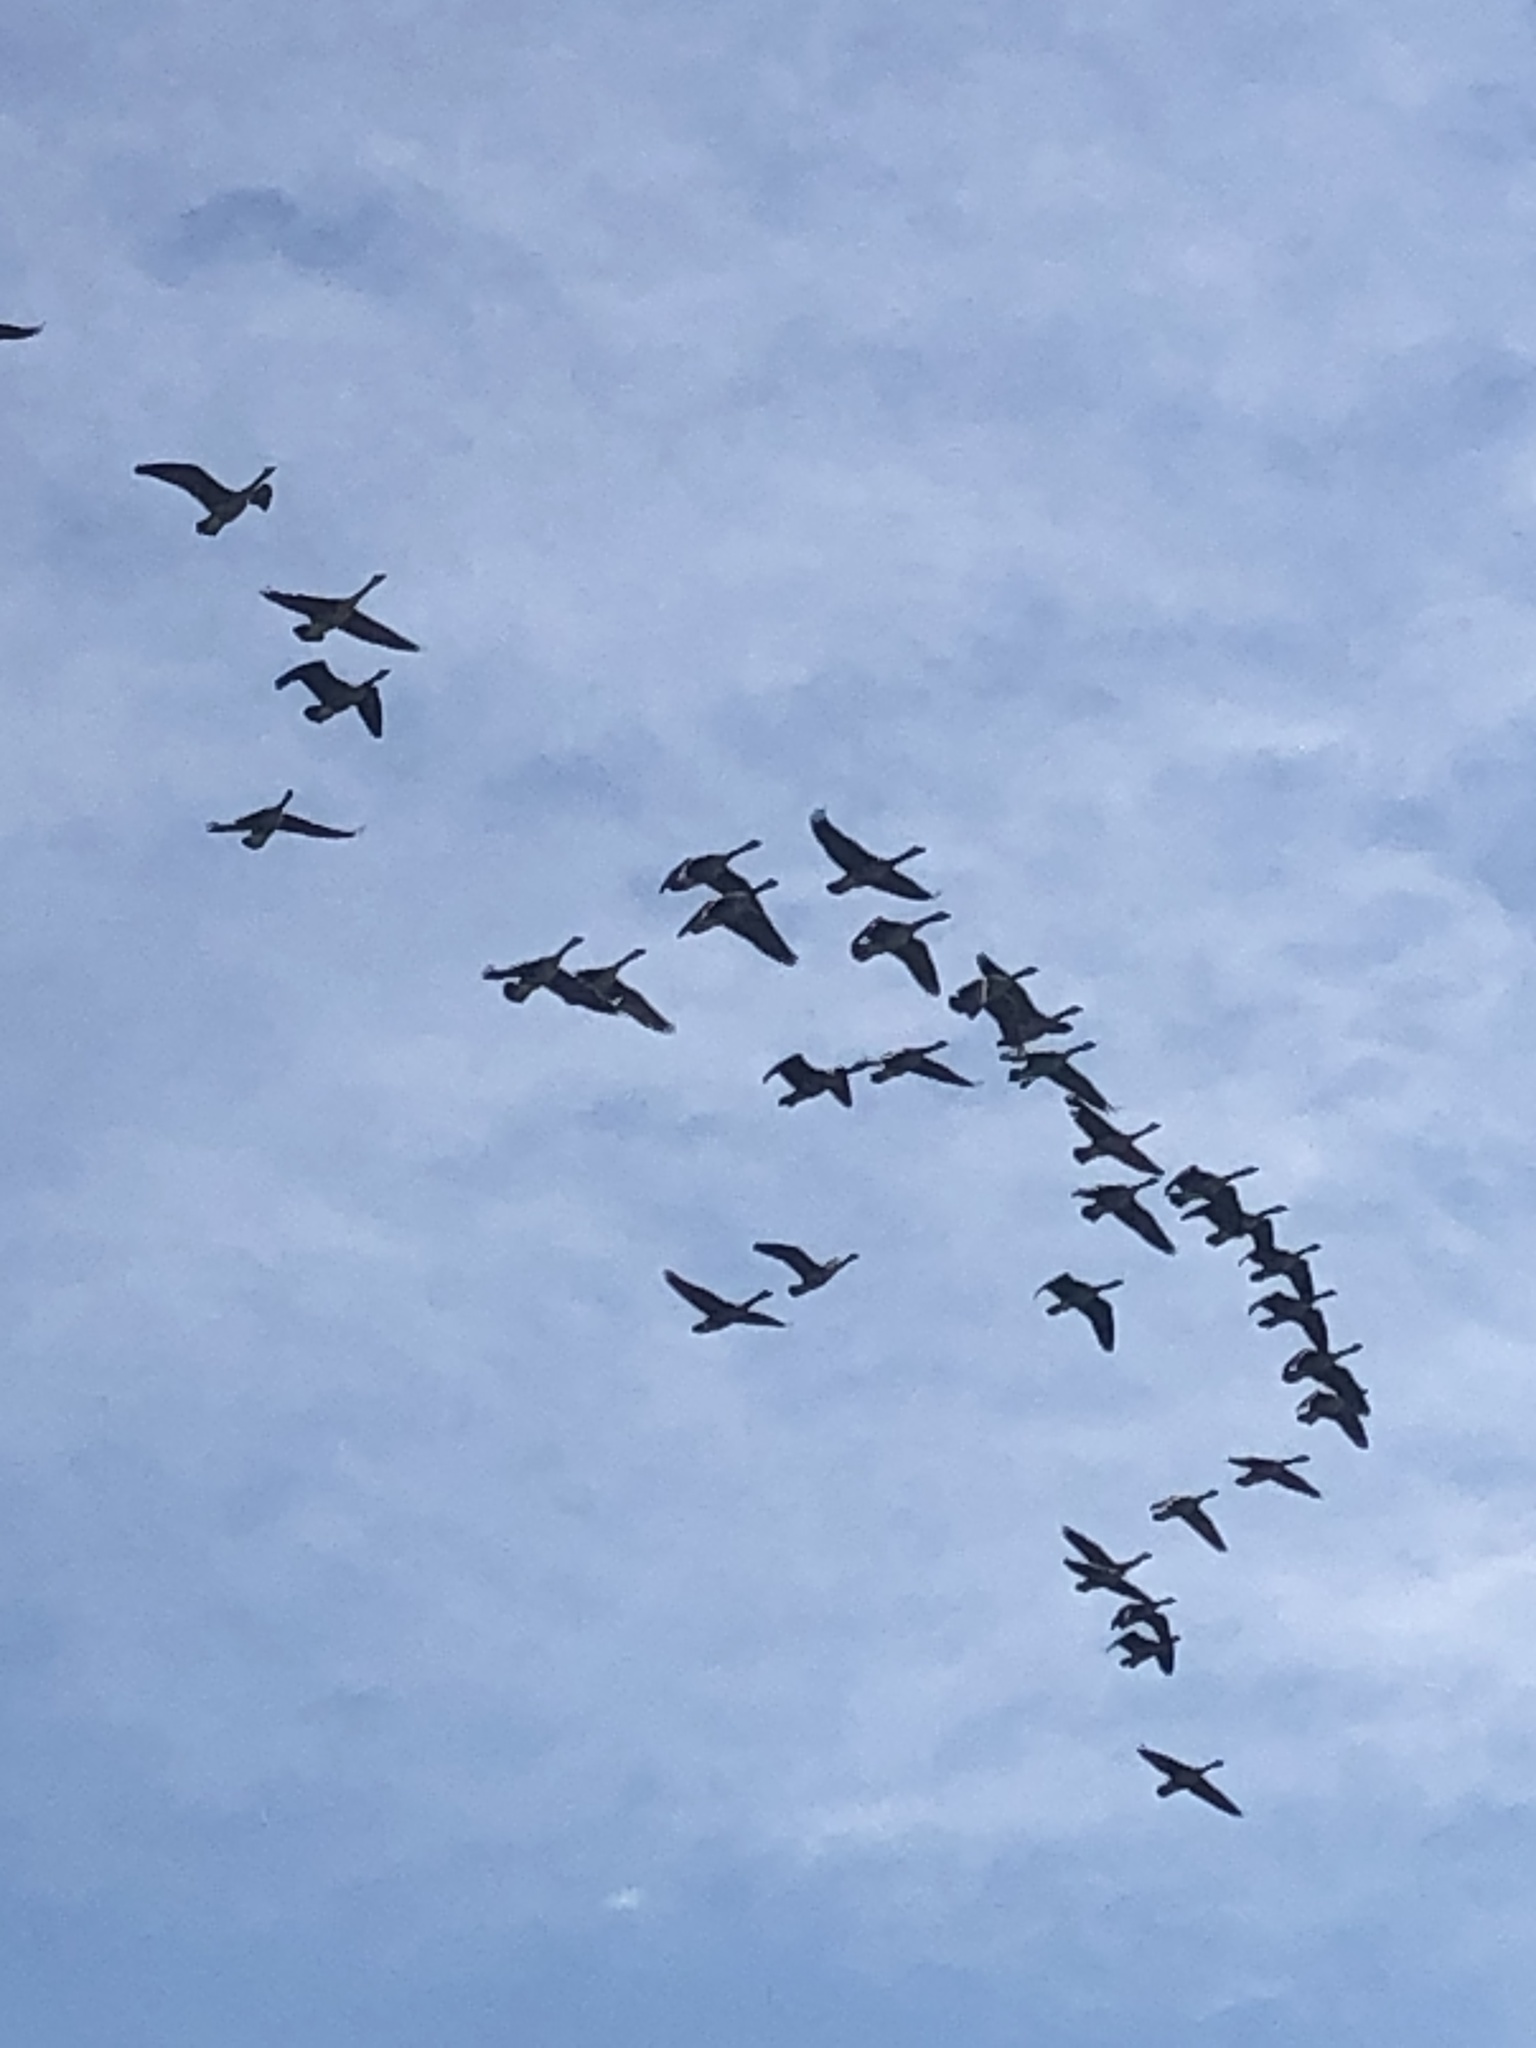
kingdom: Animalia
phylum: Chordata
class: Aves
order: Anseriformes
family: Anatidae
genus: Branta
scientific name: Branta canadensis
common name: Canada goose
